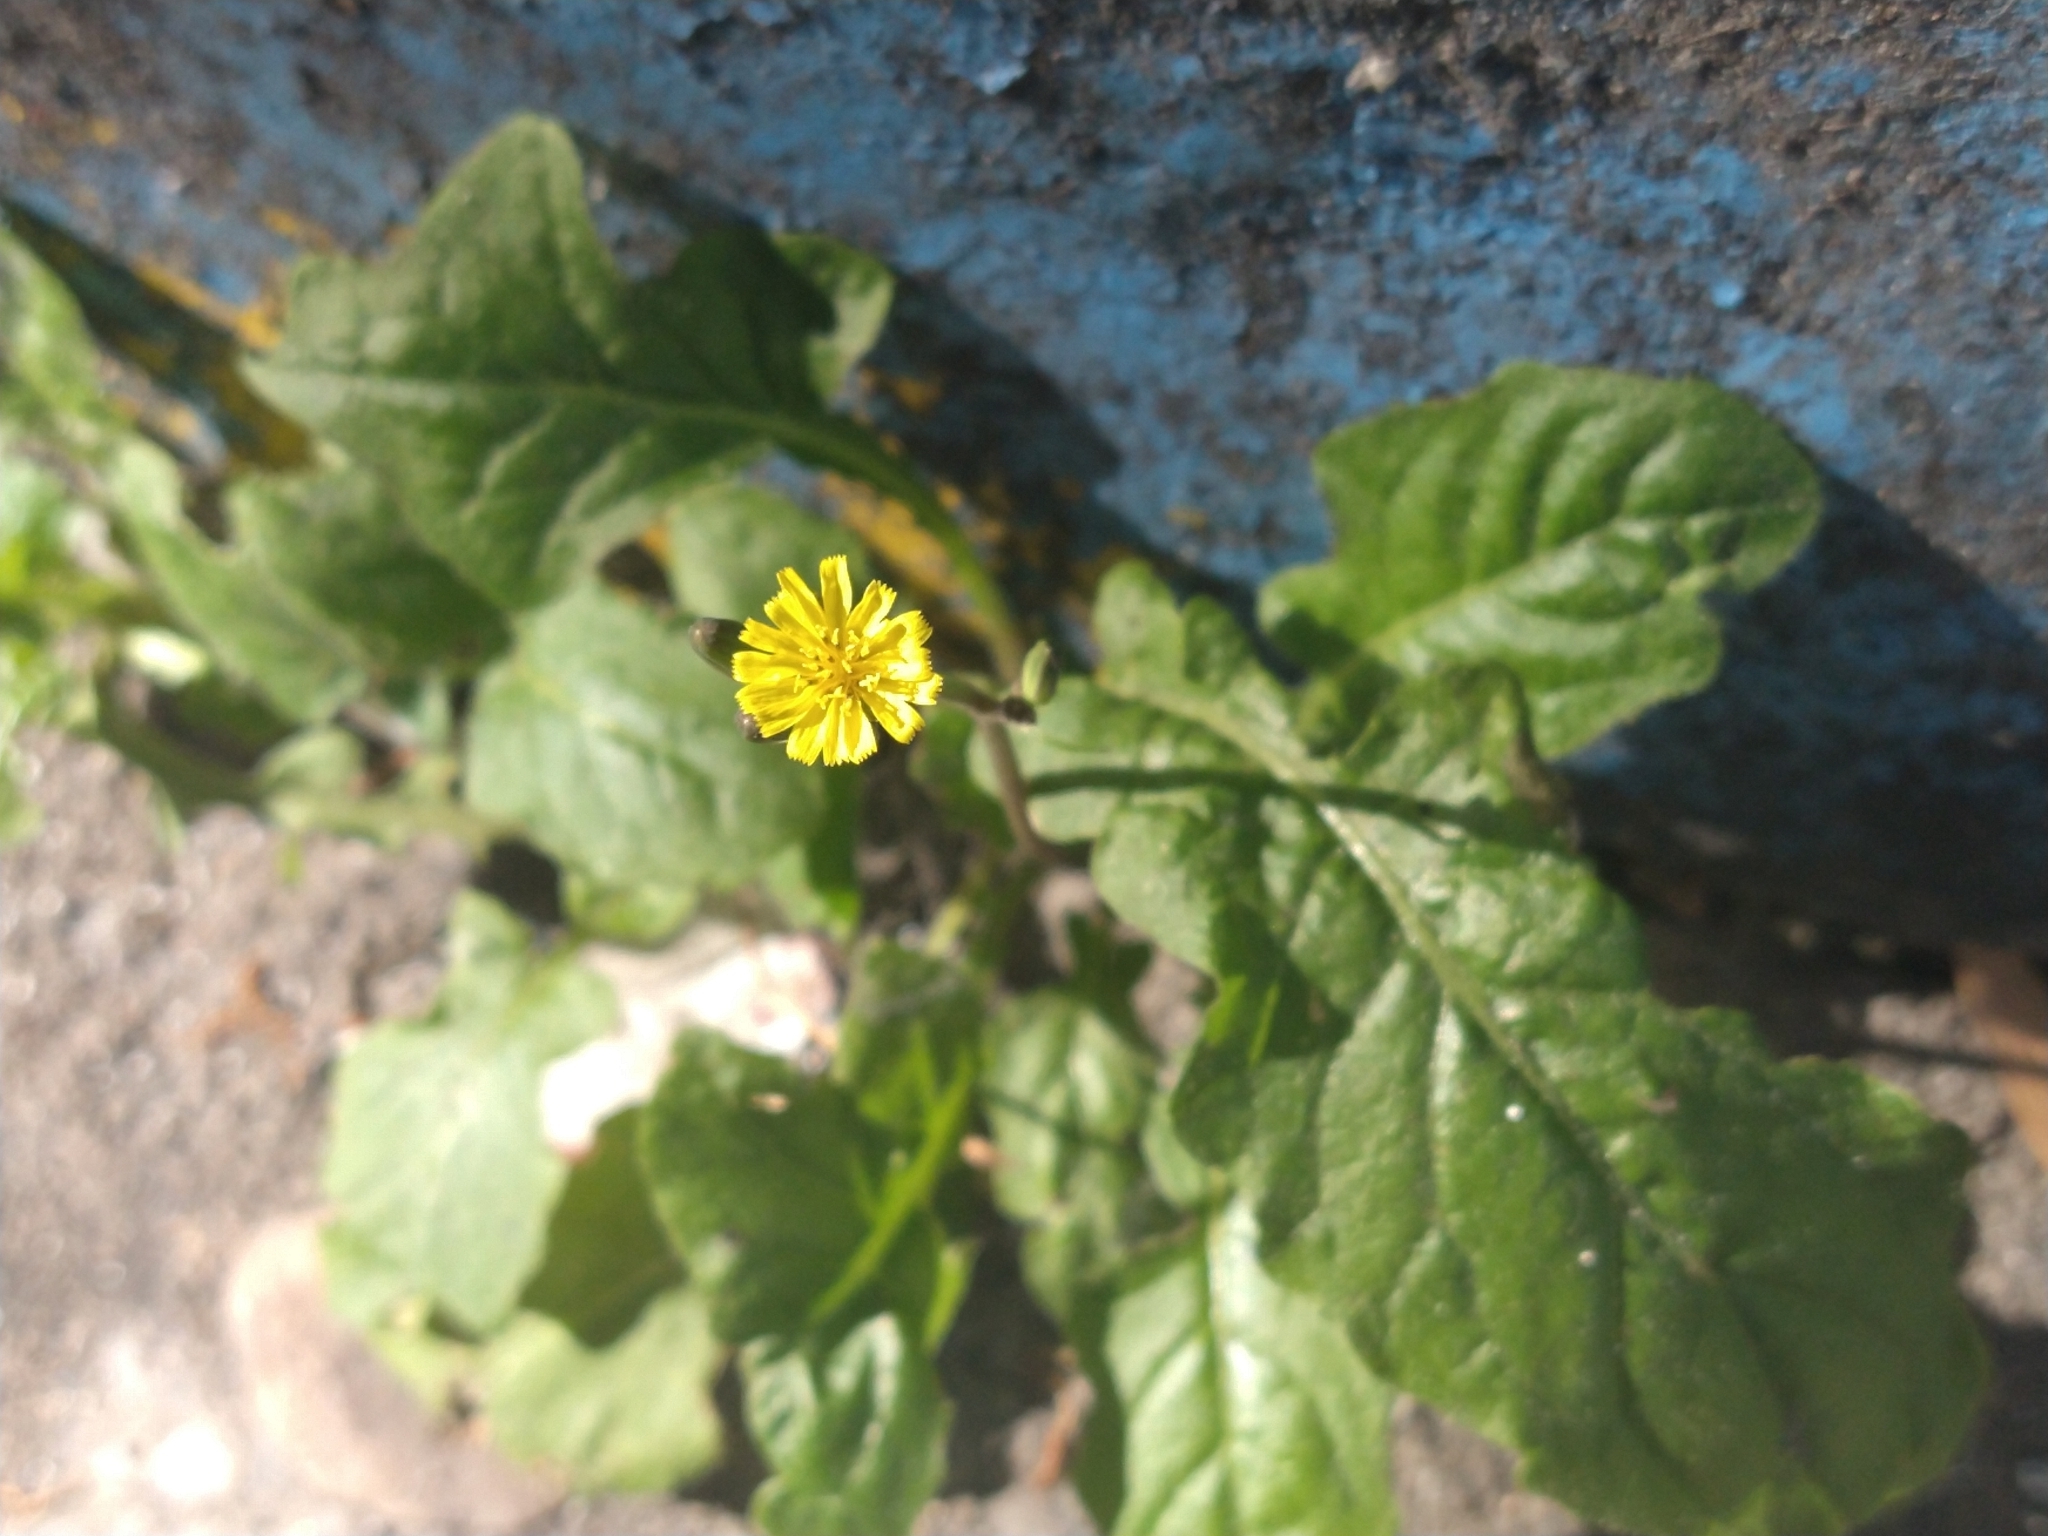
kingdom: Plantae
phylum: Tracheophyta
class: Magnoliopsida
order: Asterales
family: Asteraceae
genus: Youngia
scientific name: Youngia japonica
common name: Oriental false hawksbeard
